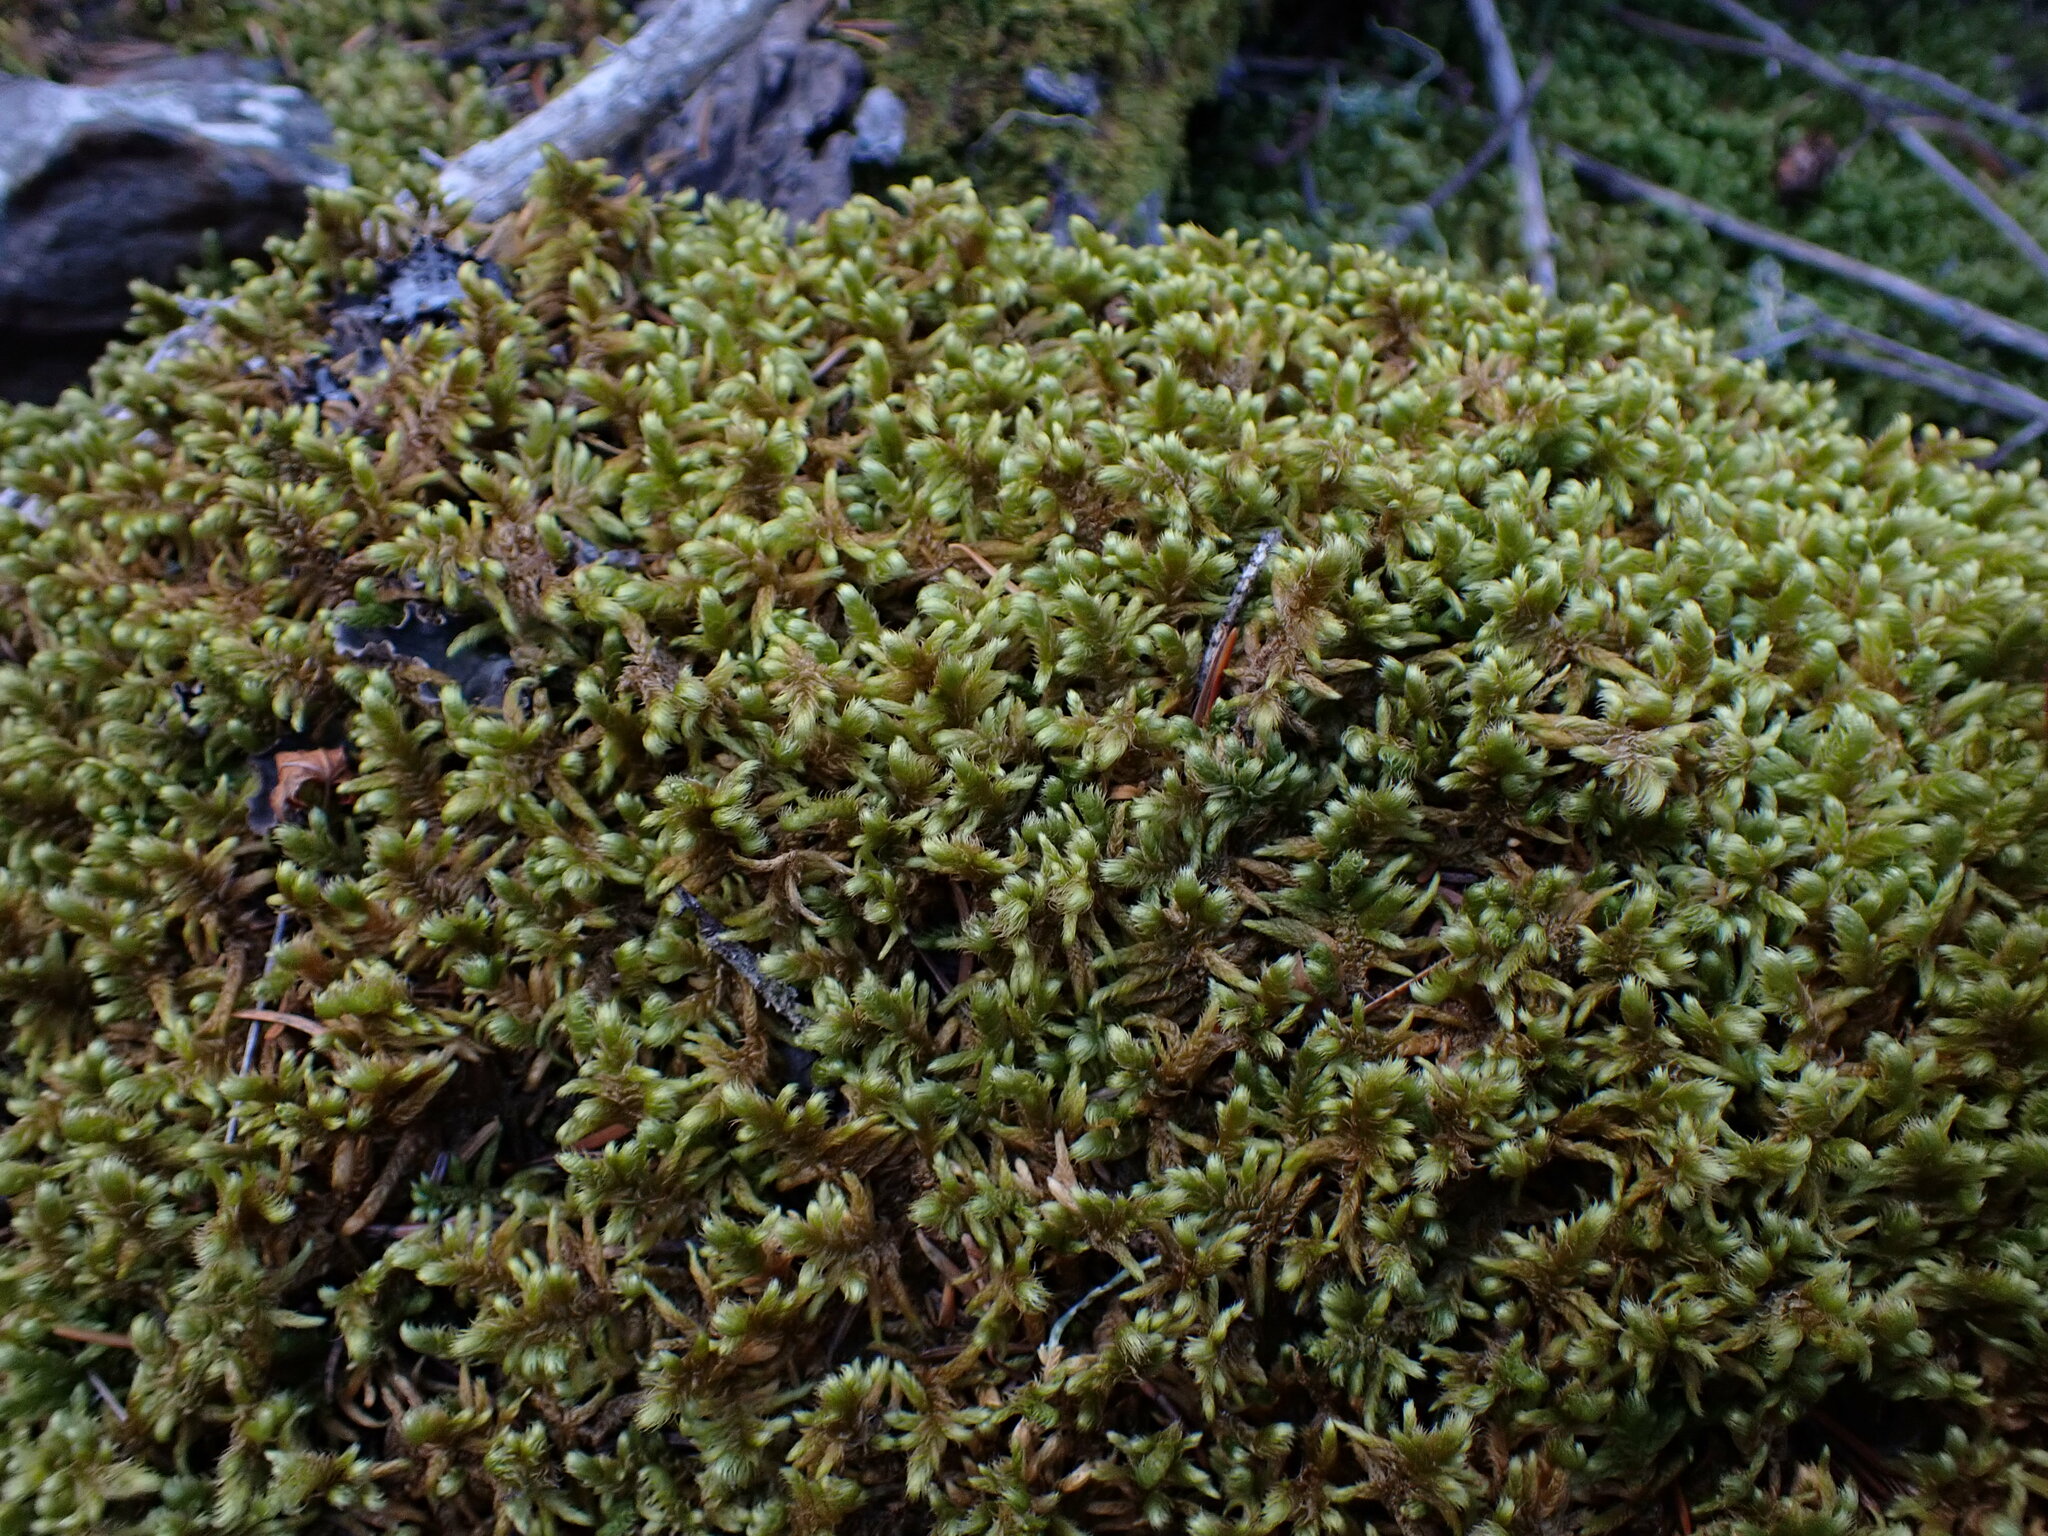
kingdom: Plantae
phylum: Bryophyta
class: Bryopsida
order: Hypnales
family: Rhytidiaceae
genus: Rhytidium
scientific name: Rhytidium rugosum
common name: Wrinkle-leaved moss
